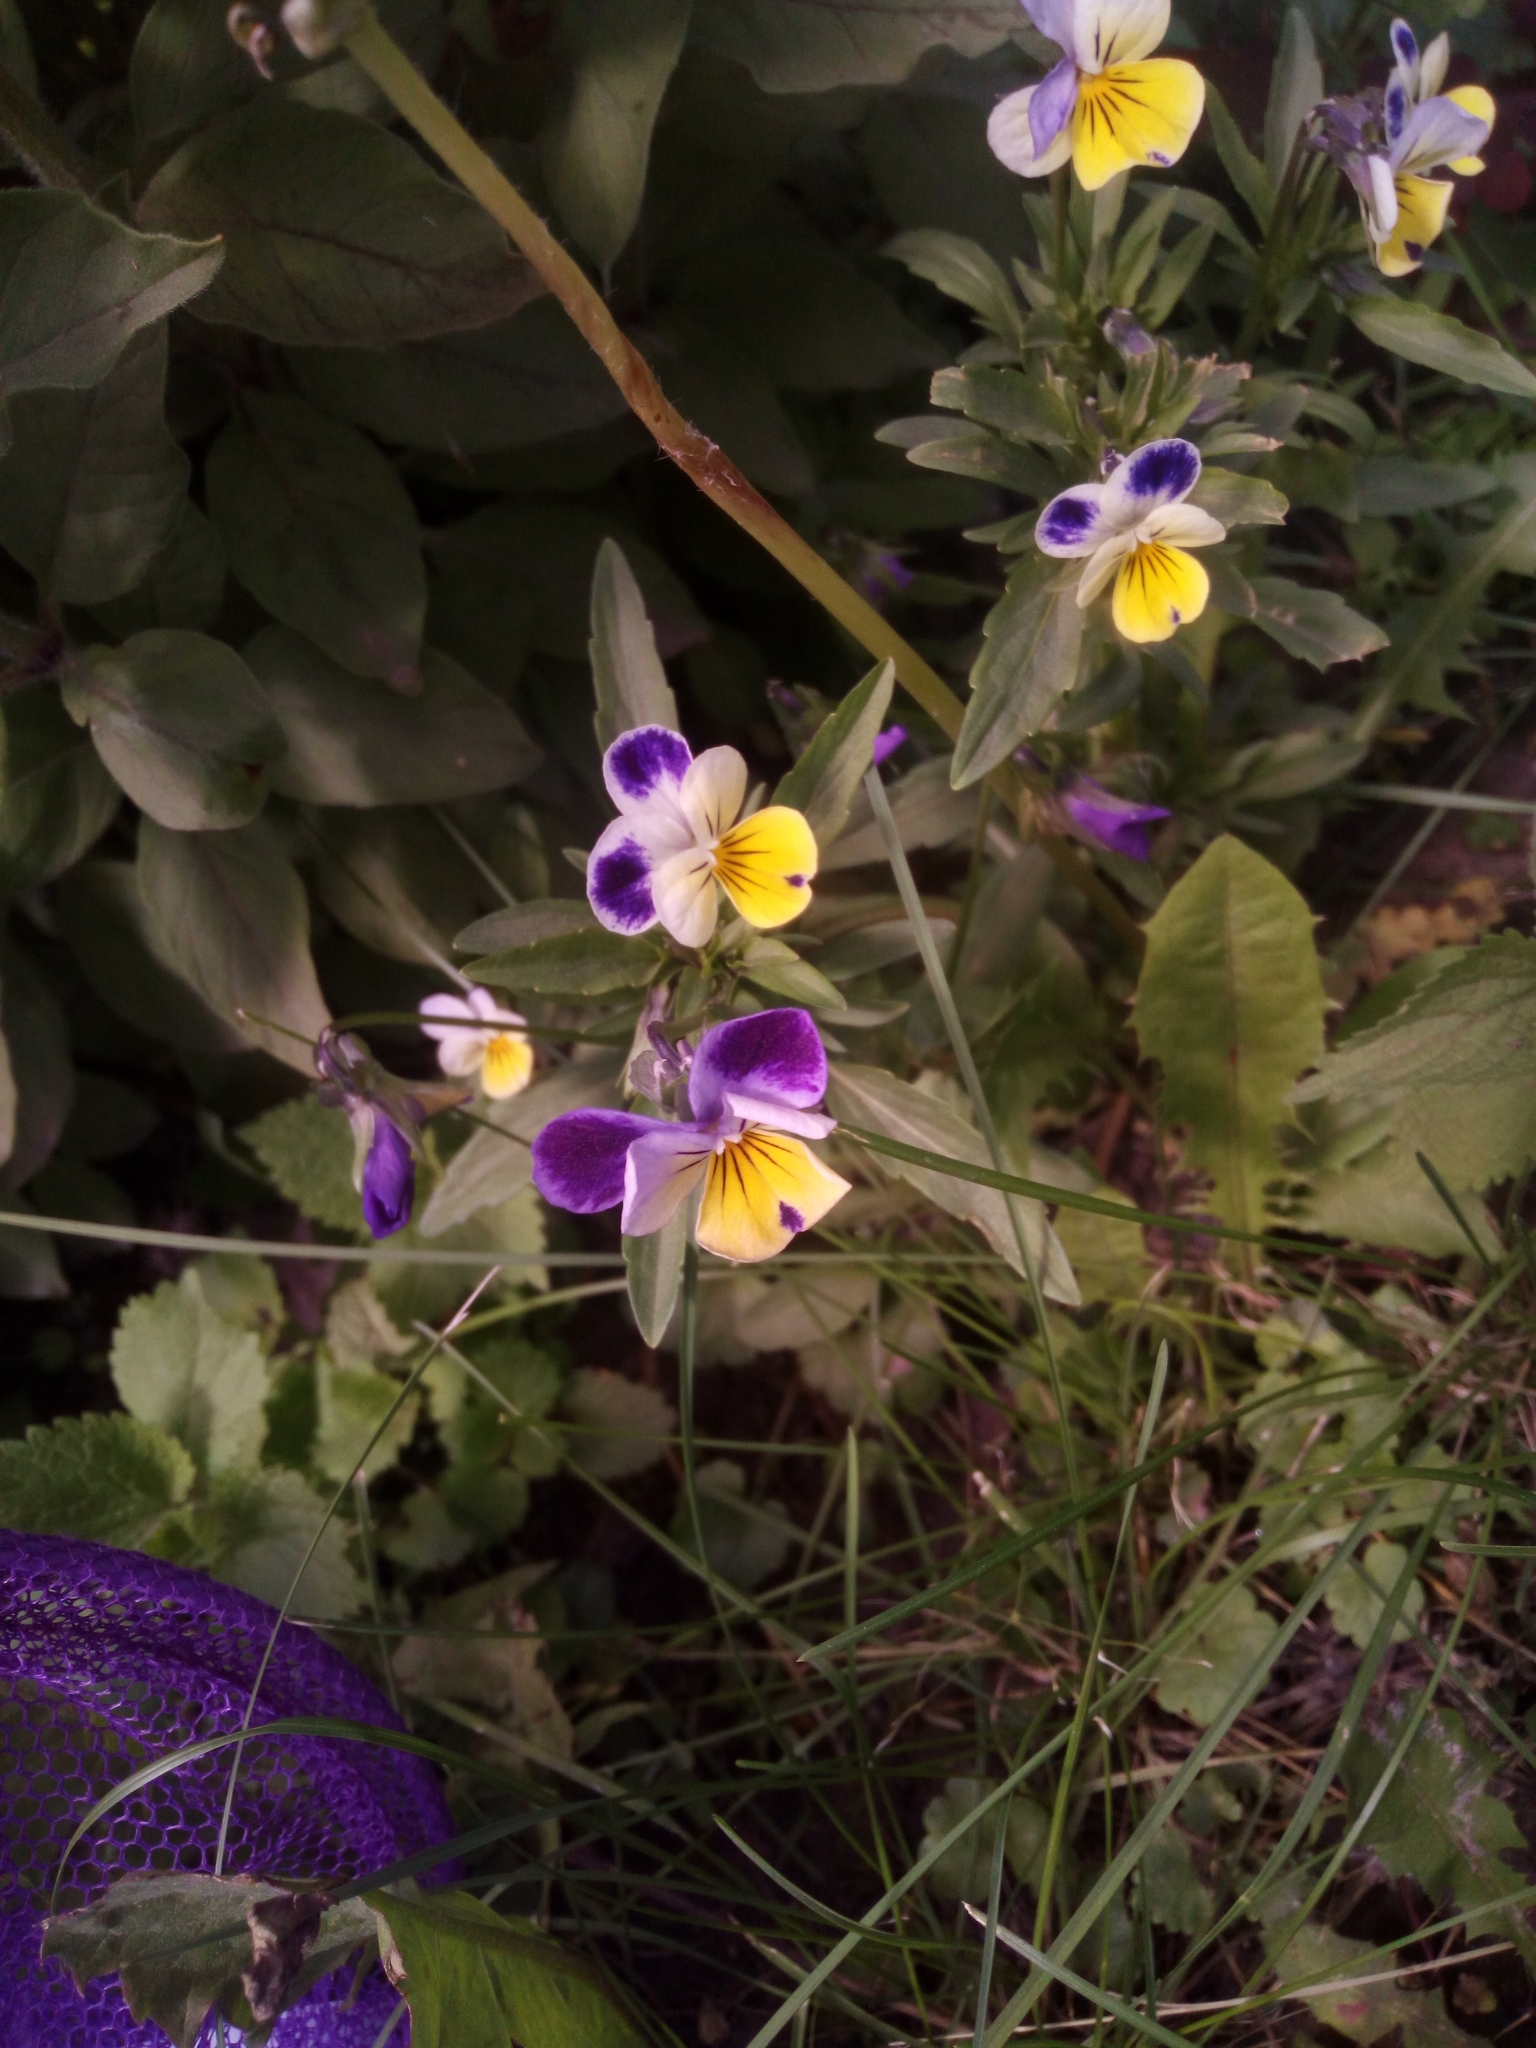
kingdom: Plantae
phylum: Tracheophyta
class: Magnoliopsida
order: Malpighiales
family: Violaceae
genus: Viola
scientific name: Viola wittrockiana
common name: Garden pansy
